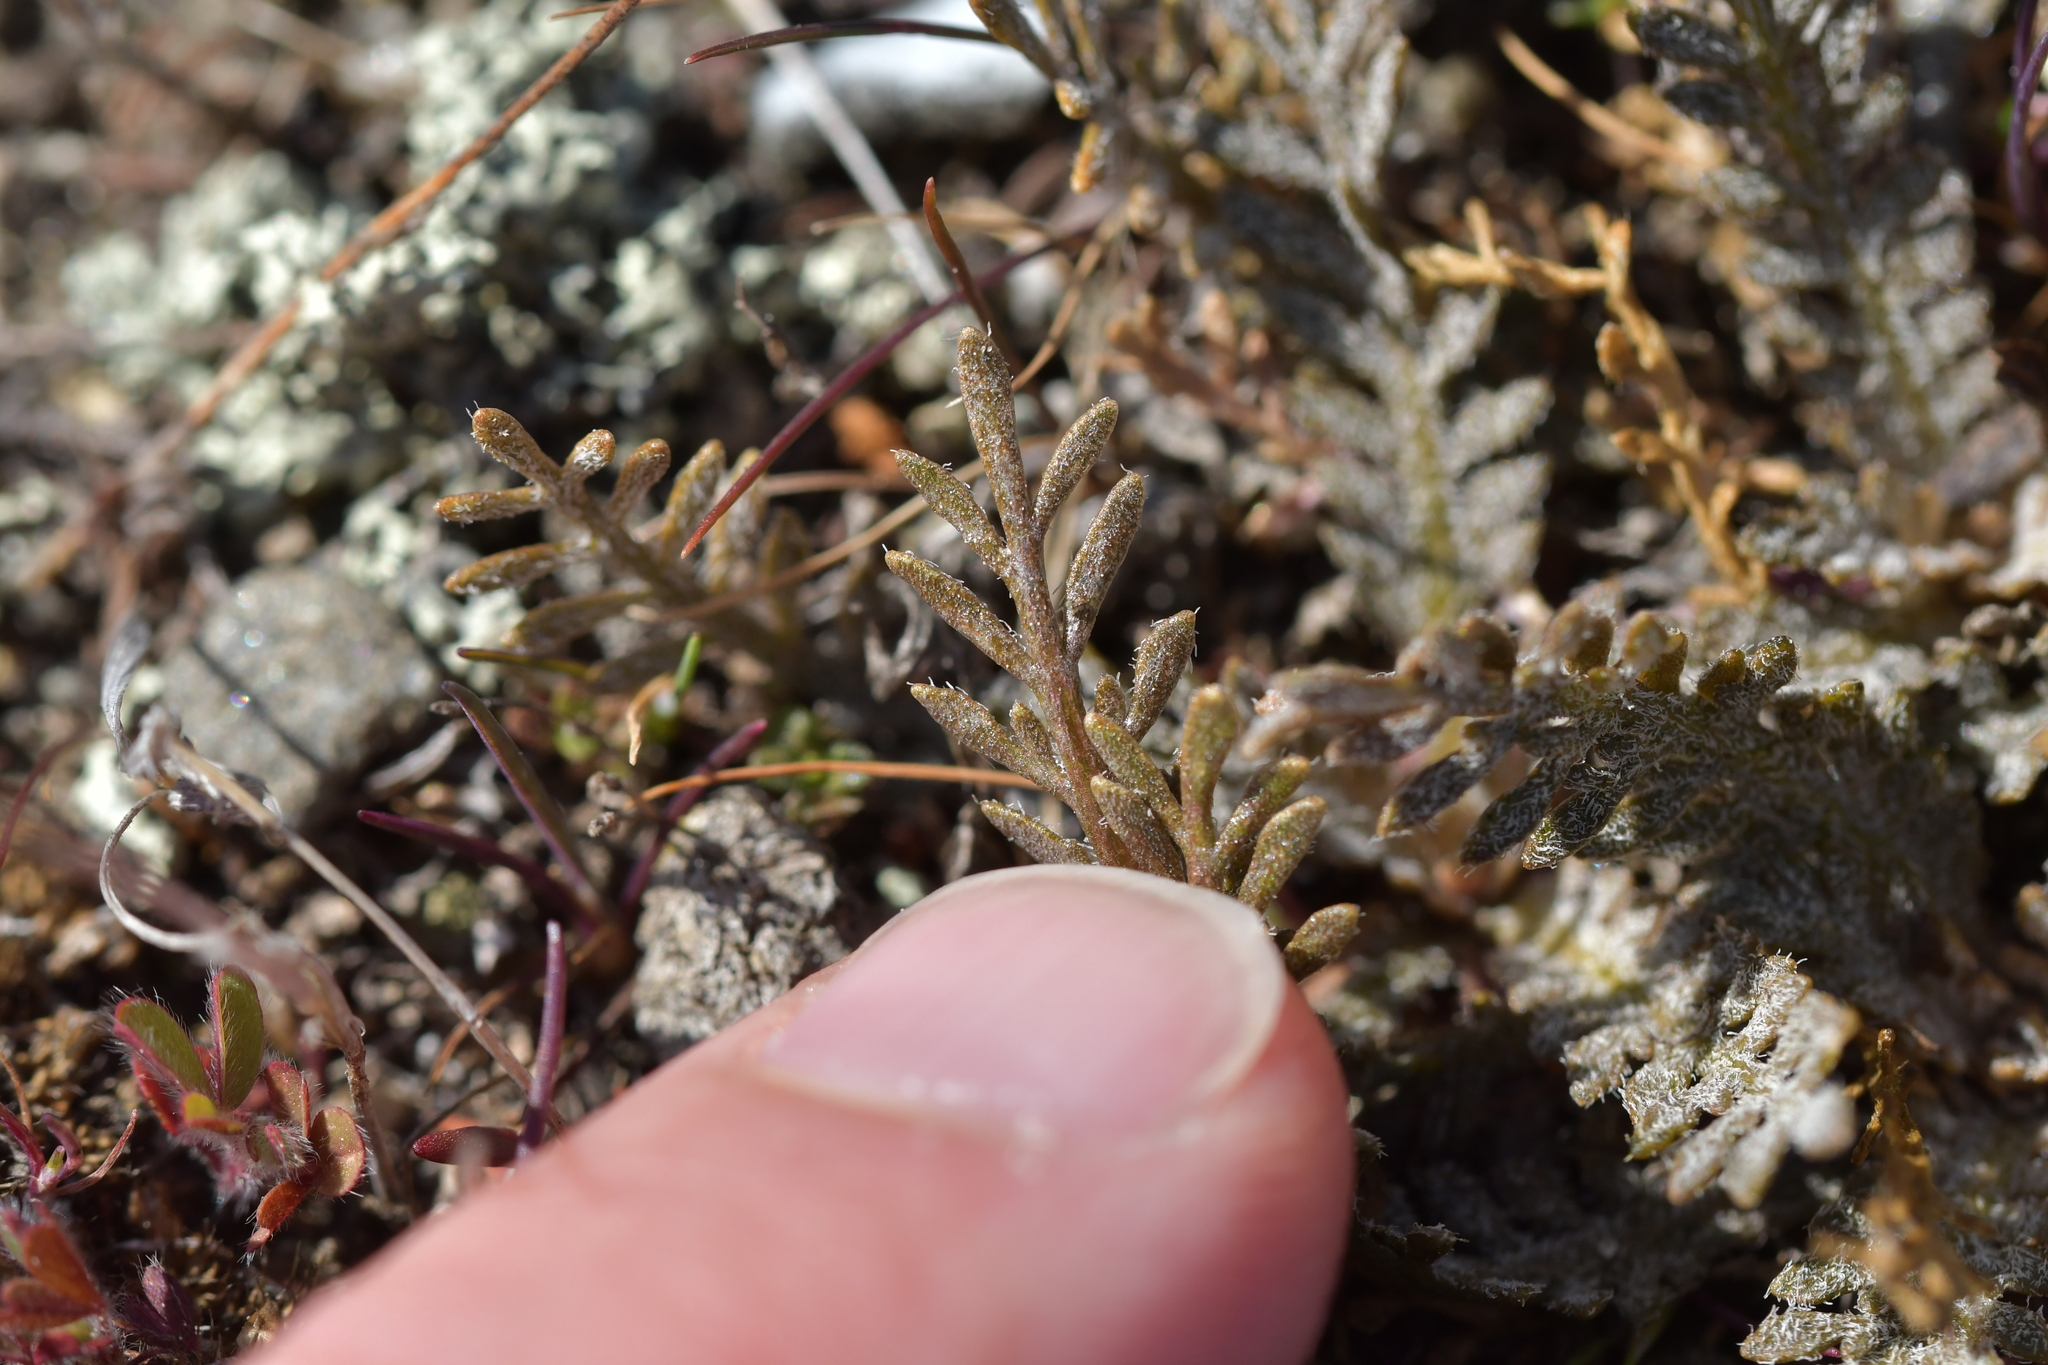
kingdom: Plantae
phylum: Tracheophyta
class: Magnoliopsida
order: Brassicales
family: Brassicaceae
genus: Lepidium
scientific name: Lepidium sisymbrioides
